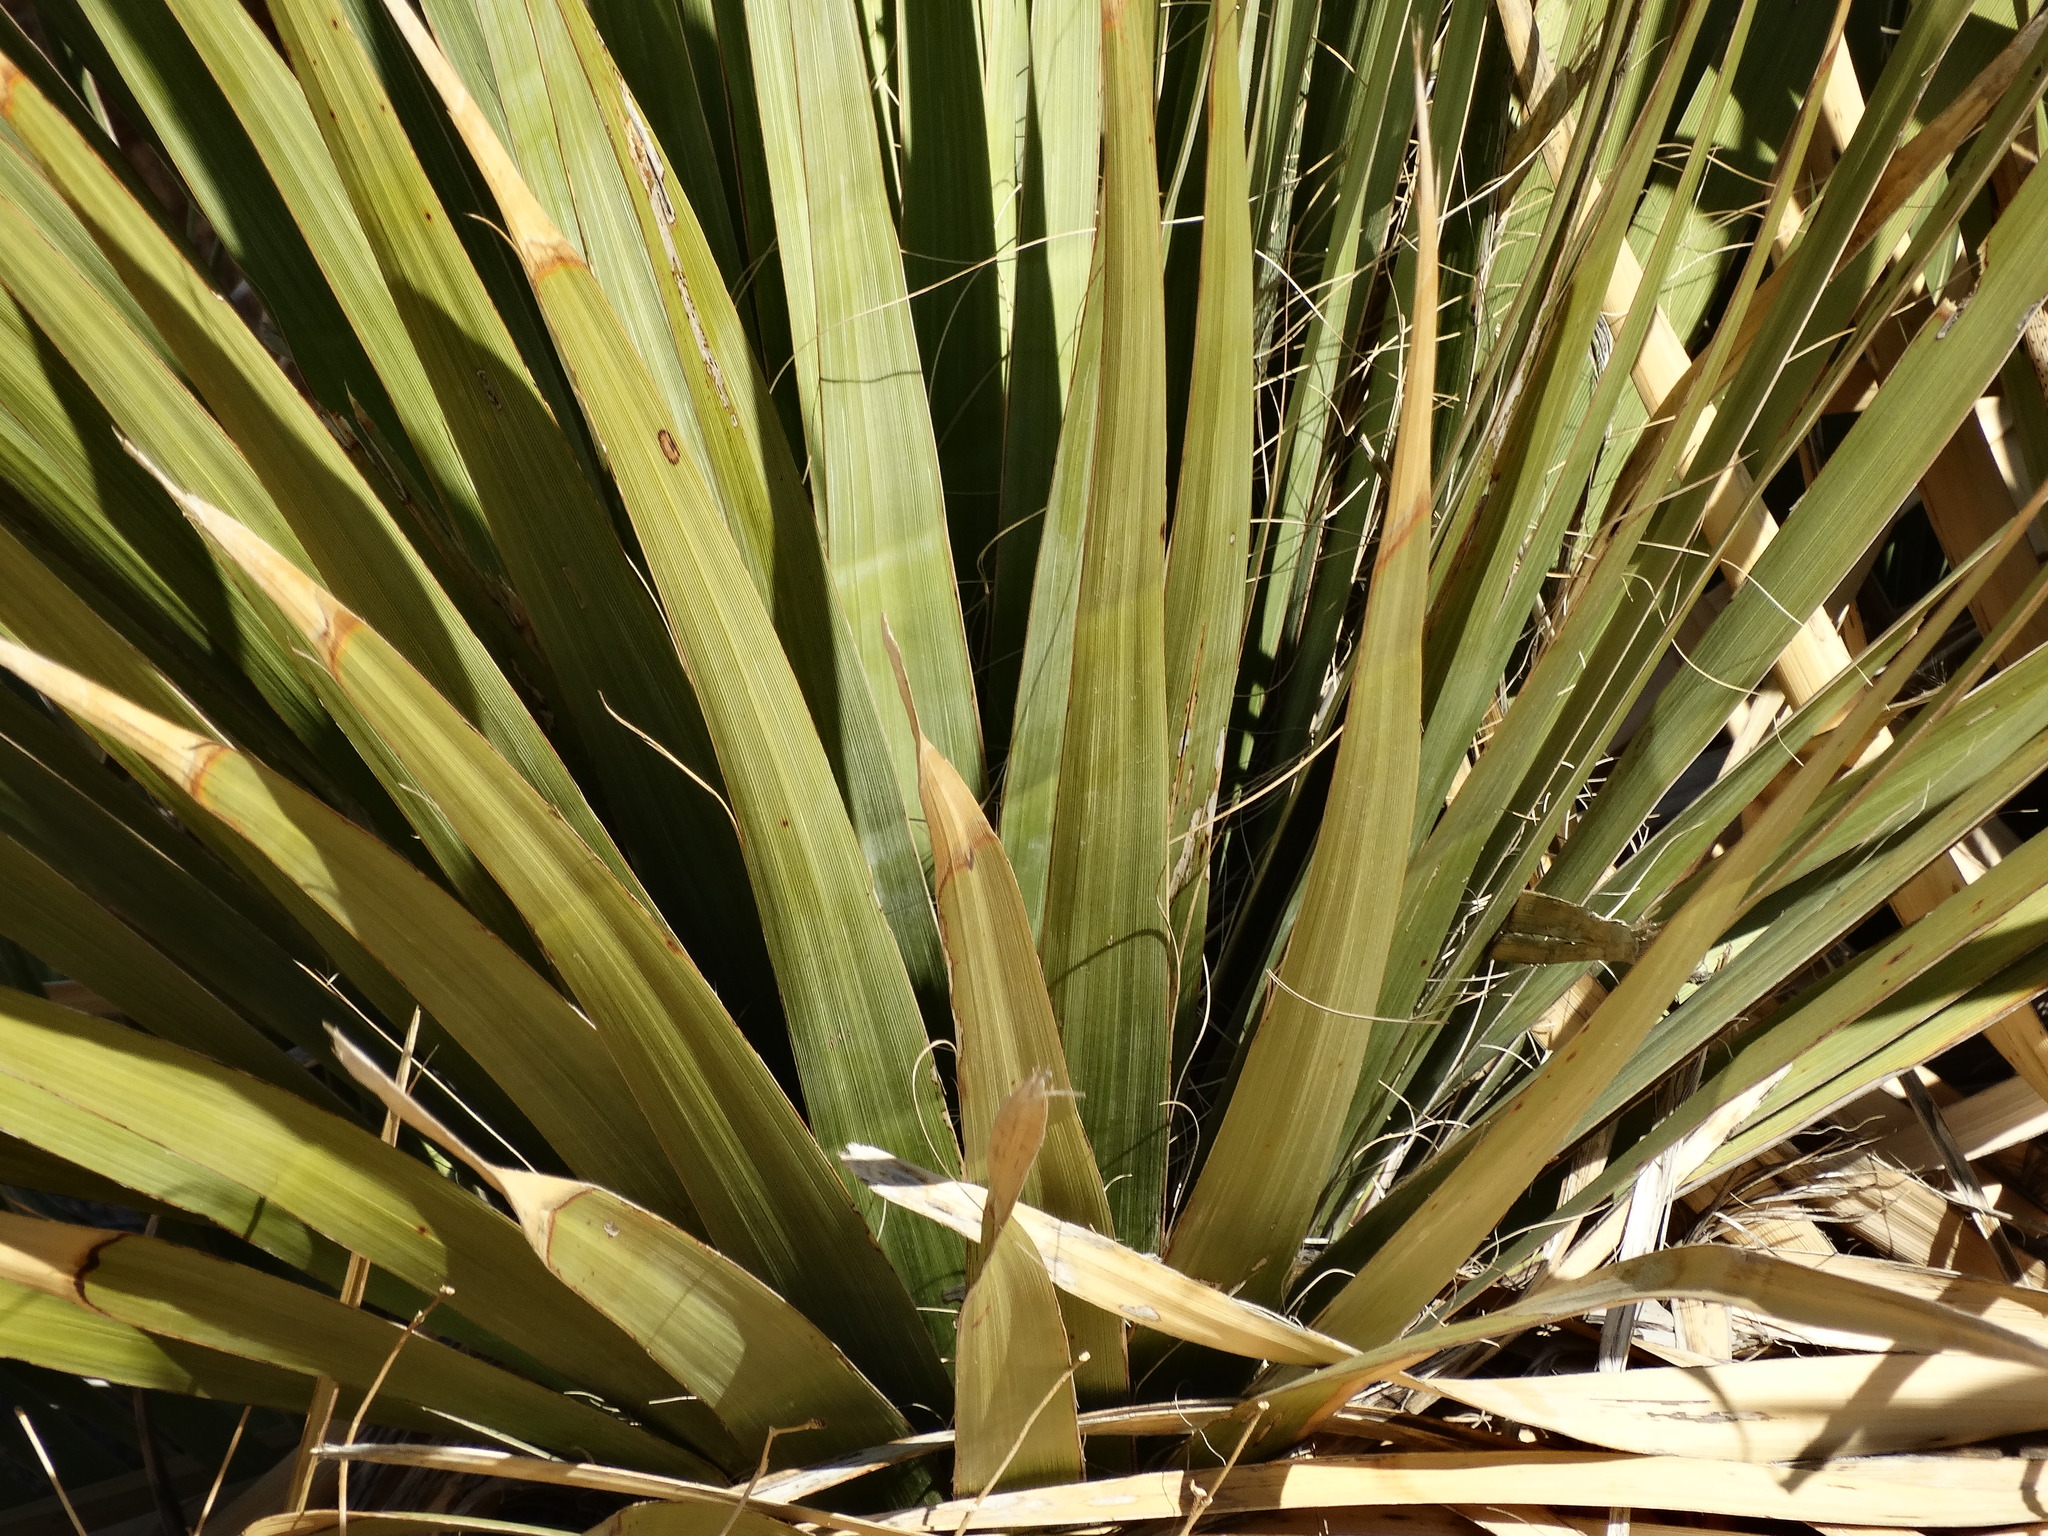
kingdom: Plantae
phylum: Tracheophyta
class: Liliopsida
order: Asparagales
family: Asparagaceae
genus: Nolina
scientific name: Nolina bigelovii
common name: Bigelow bear-grass
